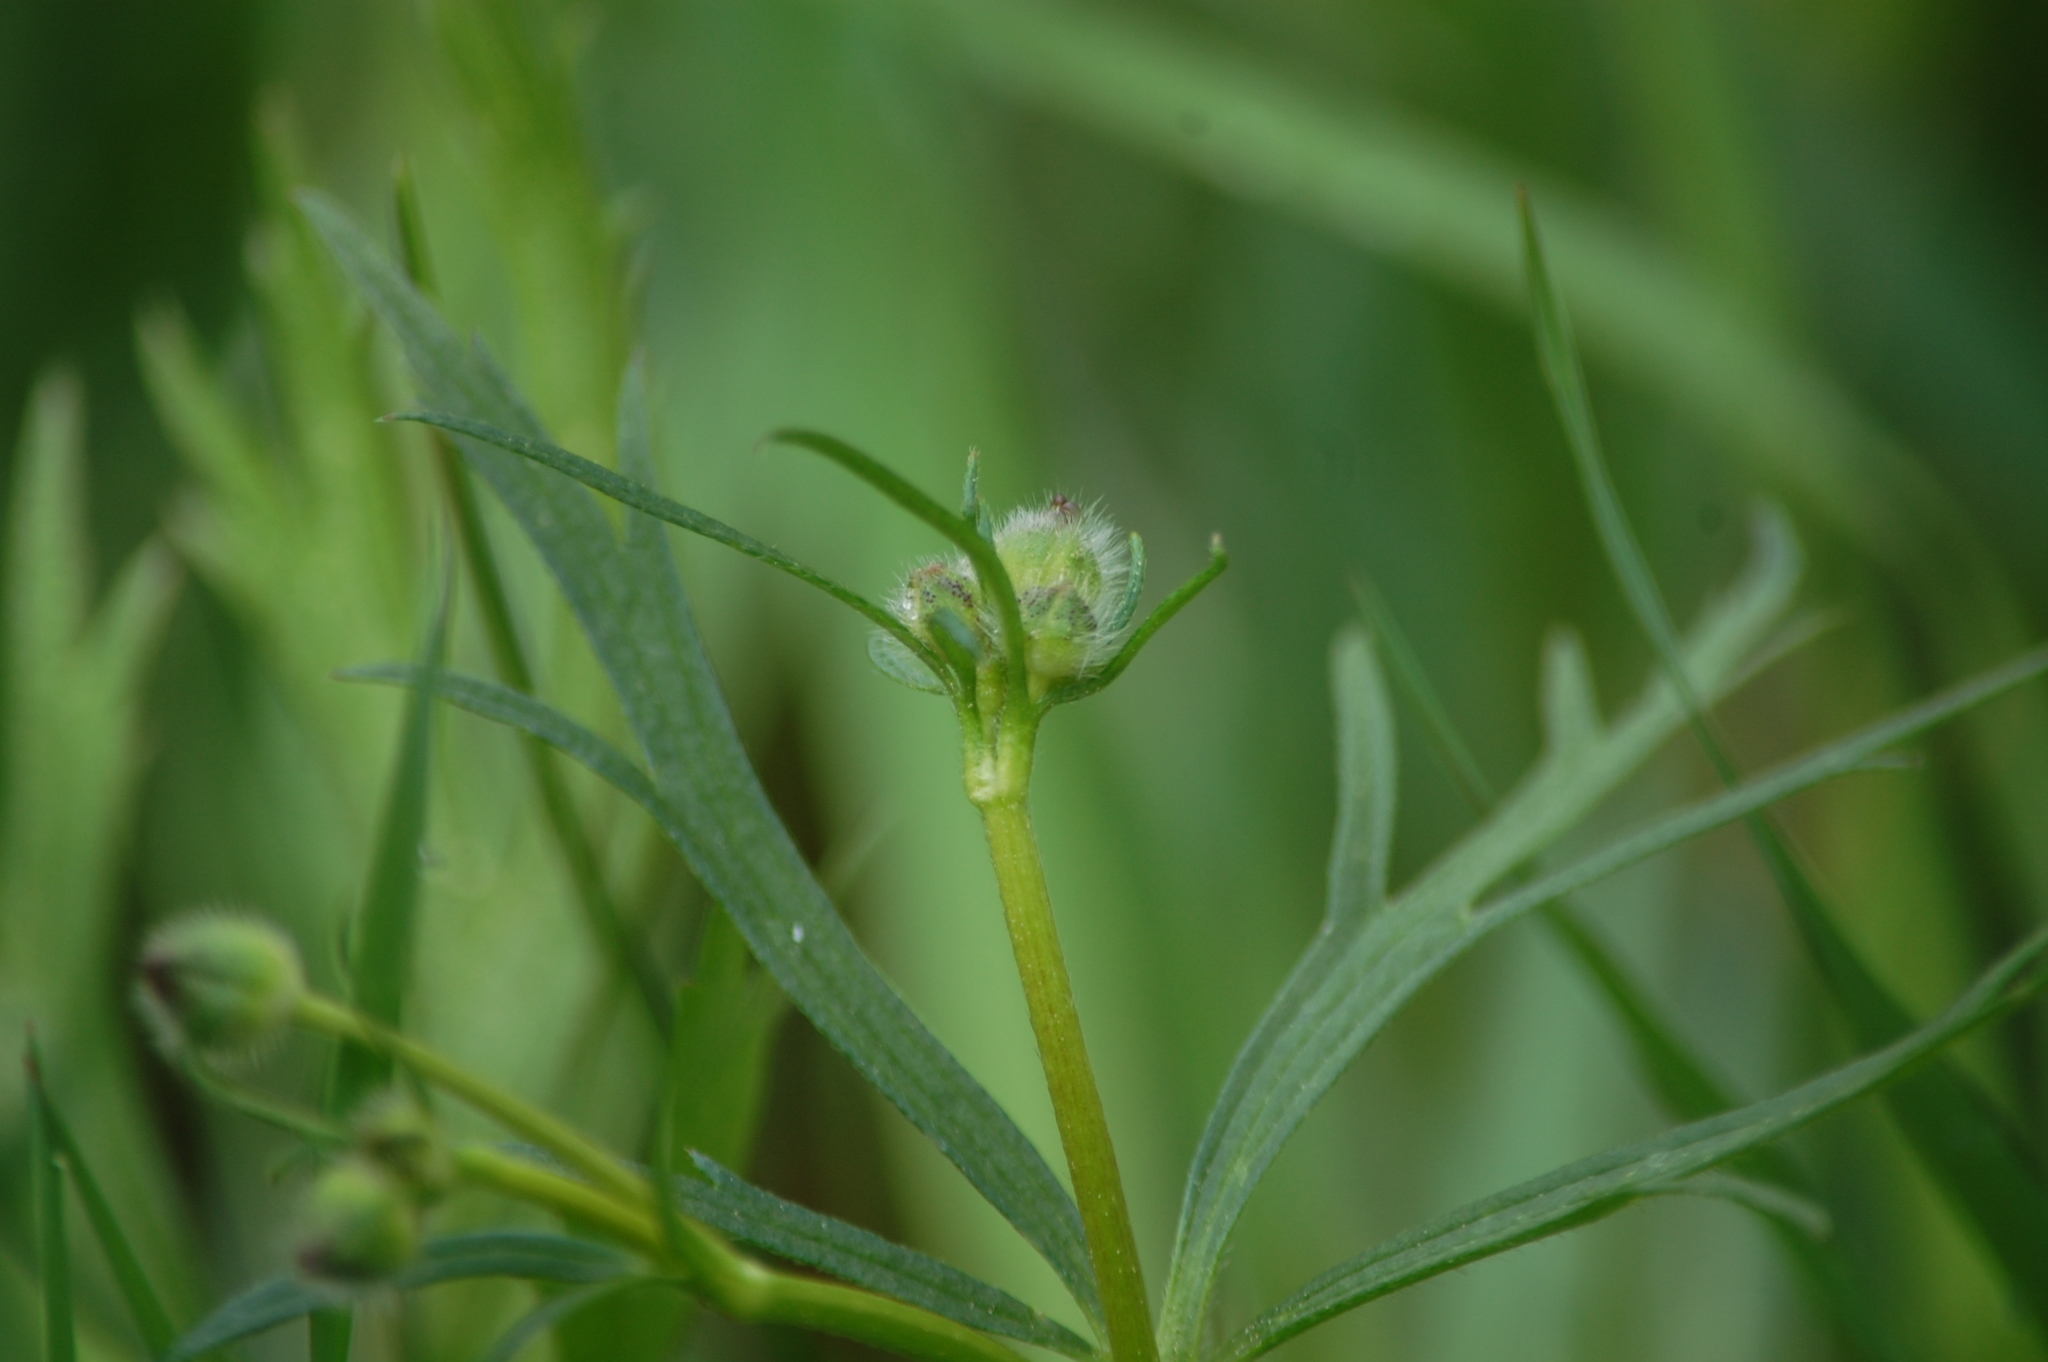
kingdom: Plantae
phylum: Tracheophyta
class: Magnoliopsida
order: Ranunculales
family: Ranunculaceae
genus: Ranunculus
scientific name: Ranunculus polyanthemos
